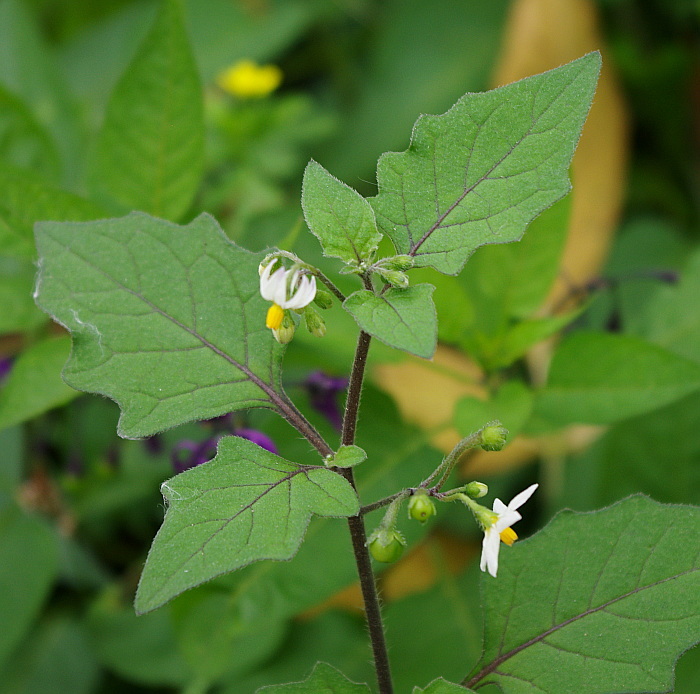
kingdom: Plantae
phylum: Tracheophyta
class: Magnoliopsida
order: Solanales
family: Solanaceae
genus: Solanum
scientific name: Solanum nigrum
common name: Black nightshade
